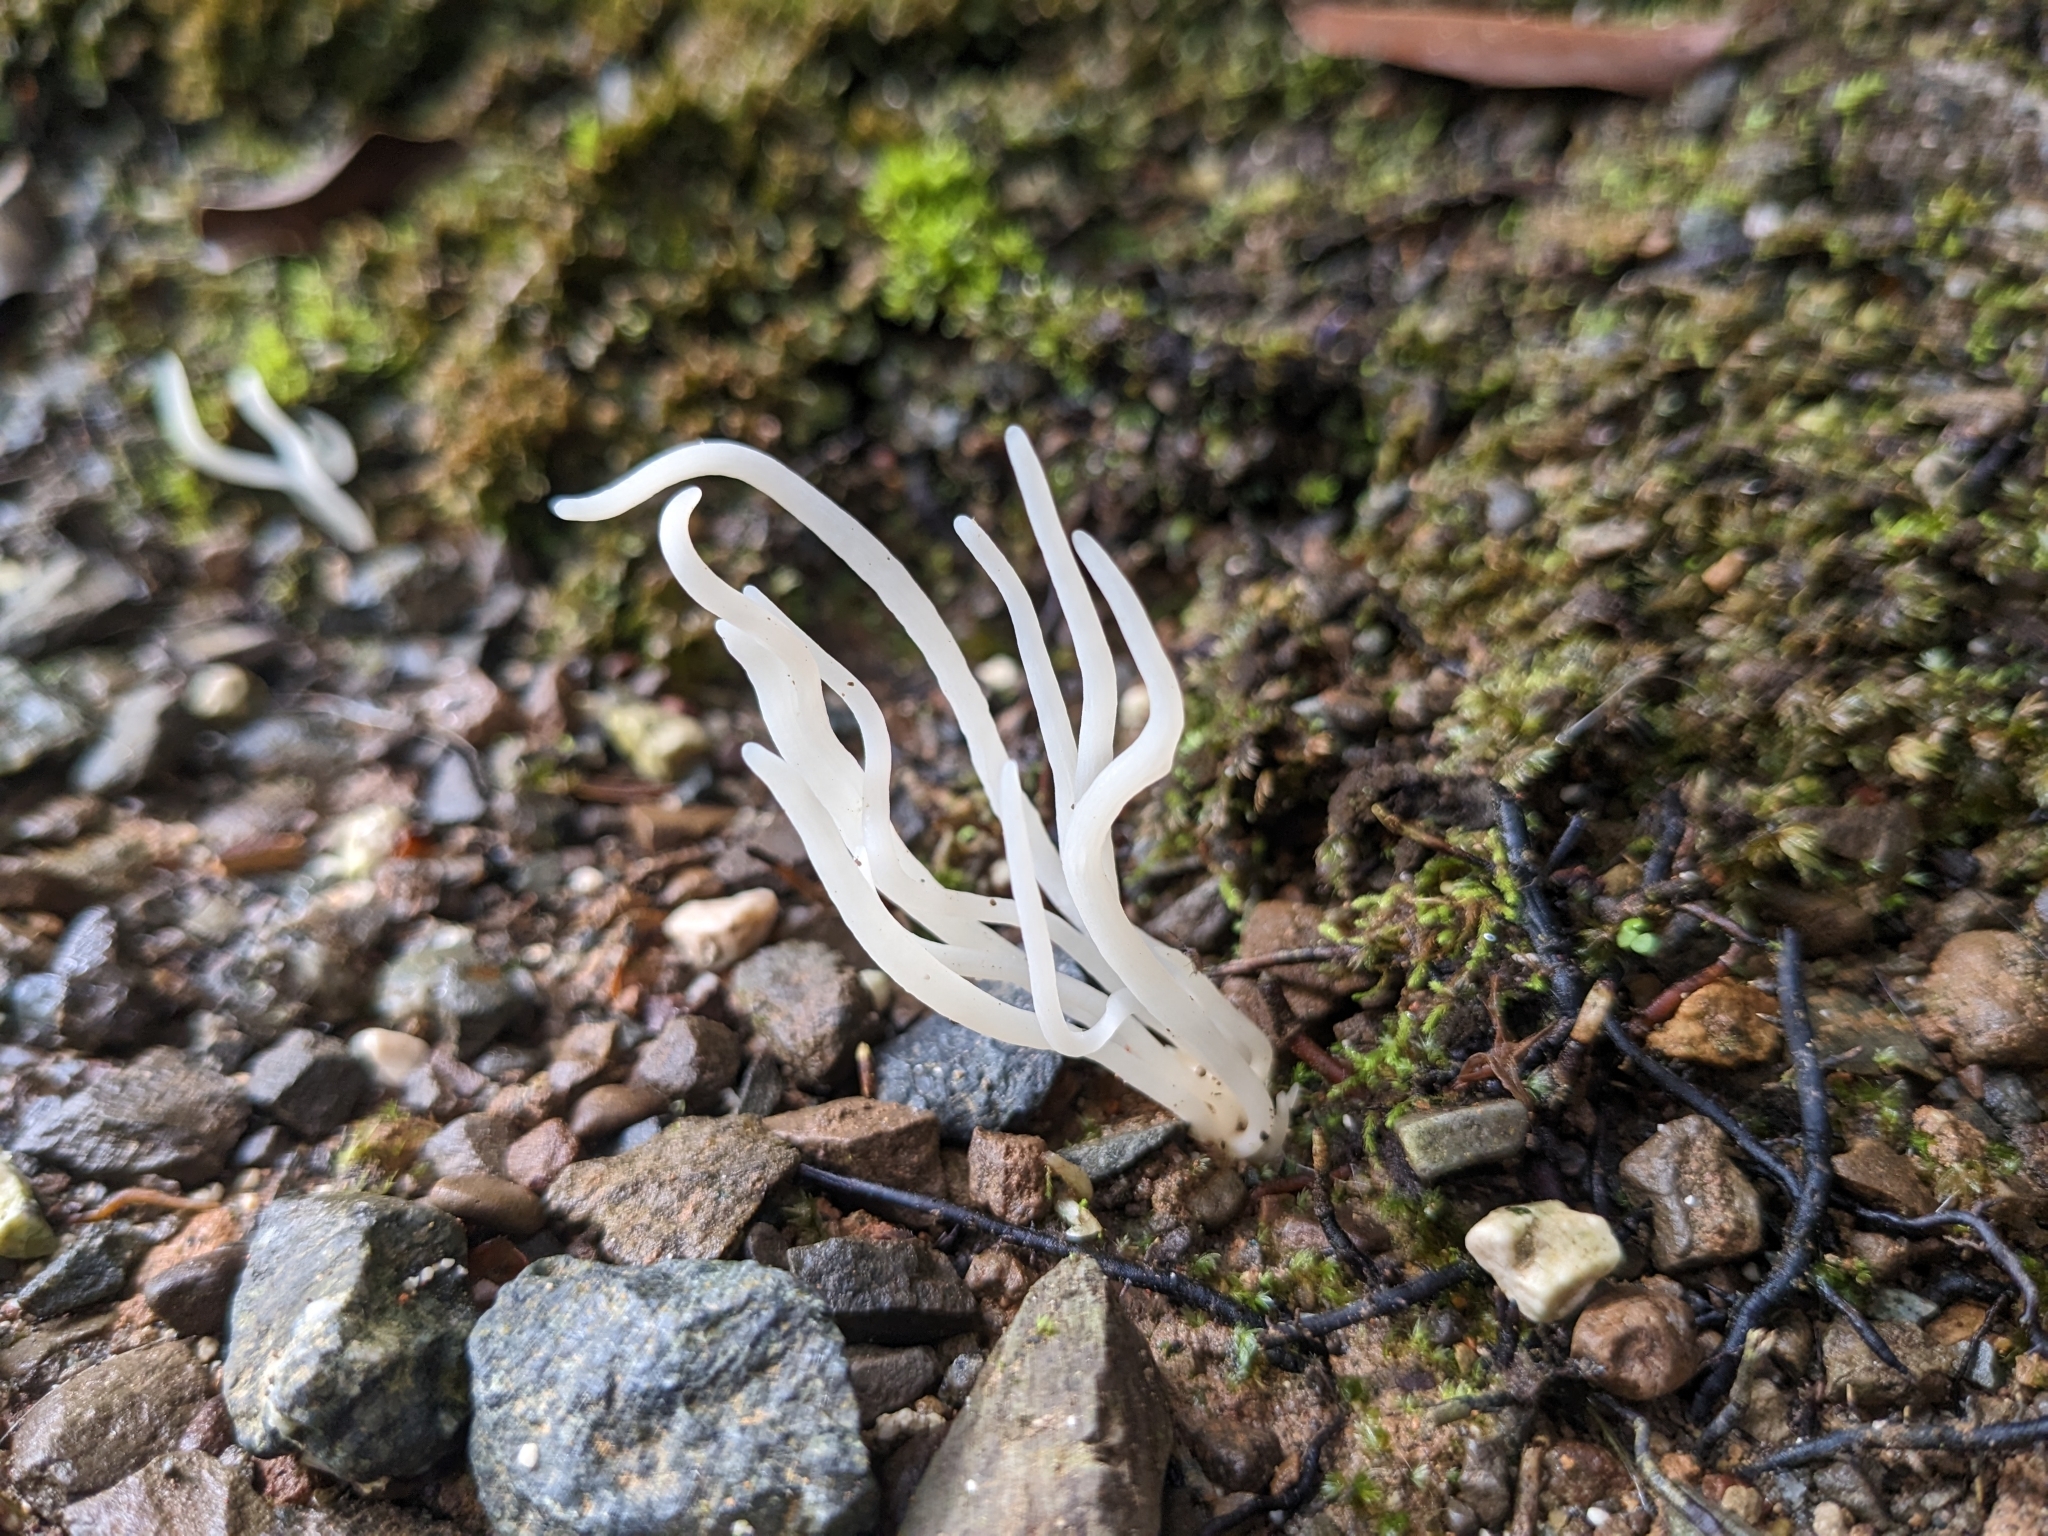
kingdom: Fungi
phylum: Basidiomycota
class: Agaricomycetes
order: Agaricales
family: Clavariaceae
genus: Clavaria
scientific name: Clavaria fragilis
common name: White spindles
